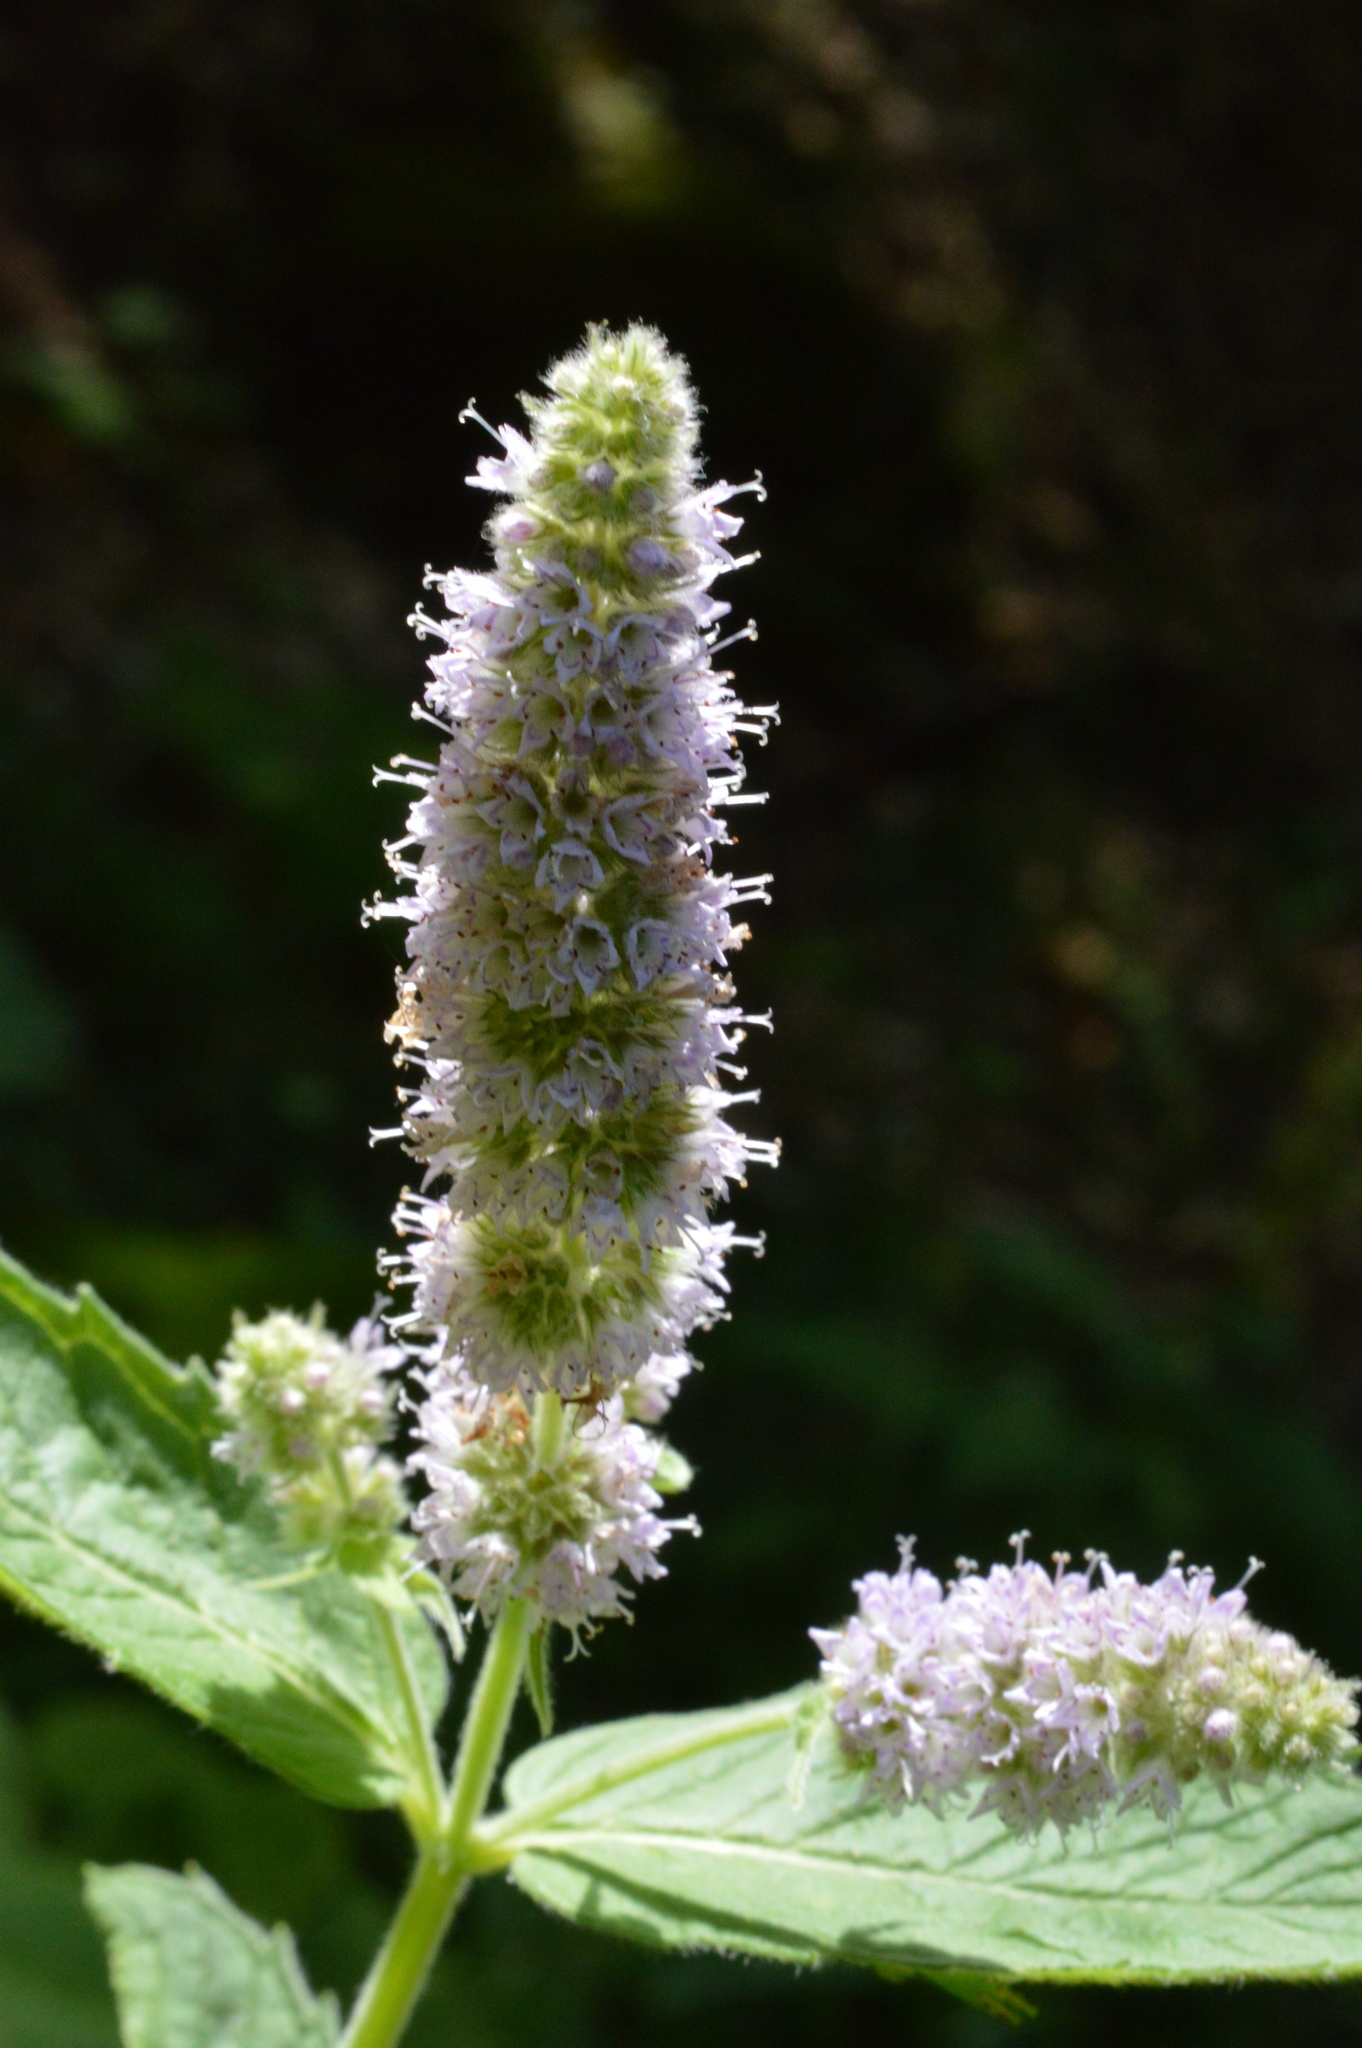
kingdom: Plantae
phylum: Tracheophyta
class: Magnoliopsida
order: Lamiales
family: Lamiaceae
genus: Mentha
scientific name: Mentha longifolia
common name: Horse mint
